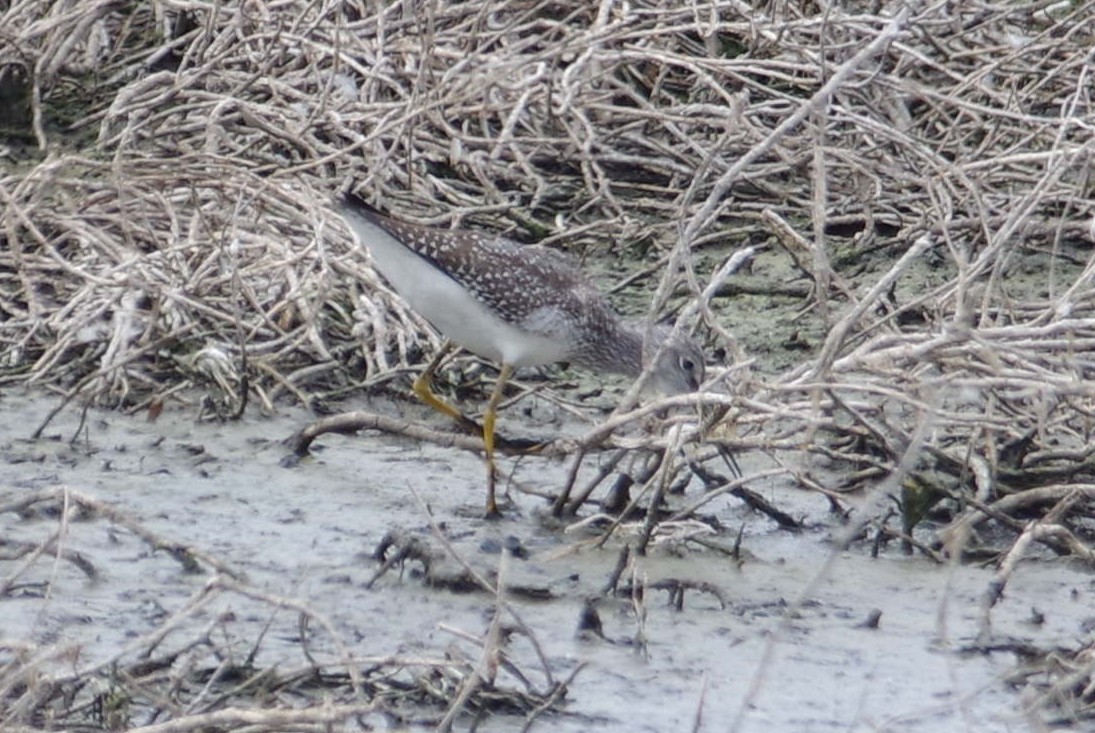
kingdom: Animalia
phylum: Chordata
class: Aves
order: Charadriiformes
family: Scolopacidae
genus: Tringa
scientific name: Tringa melanoleuca
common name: Greater yellowlegs
